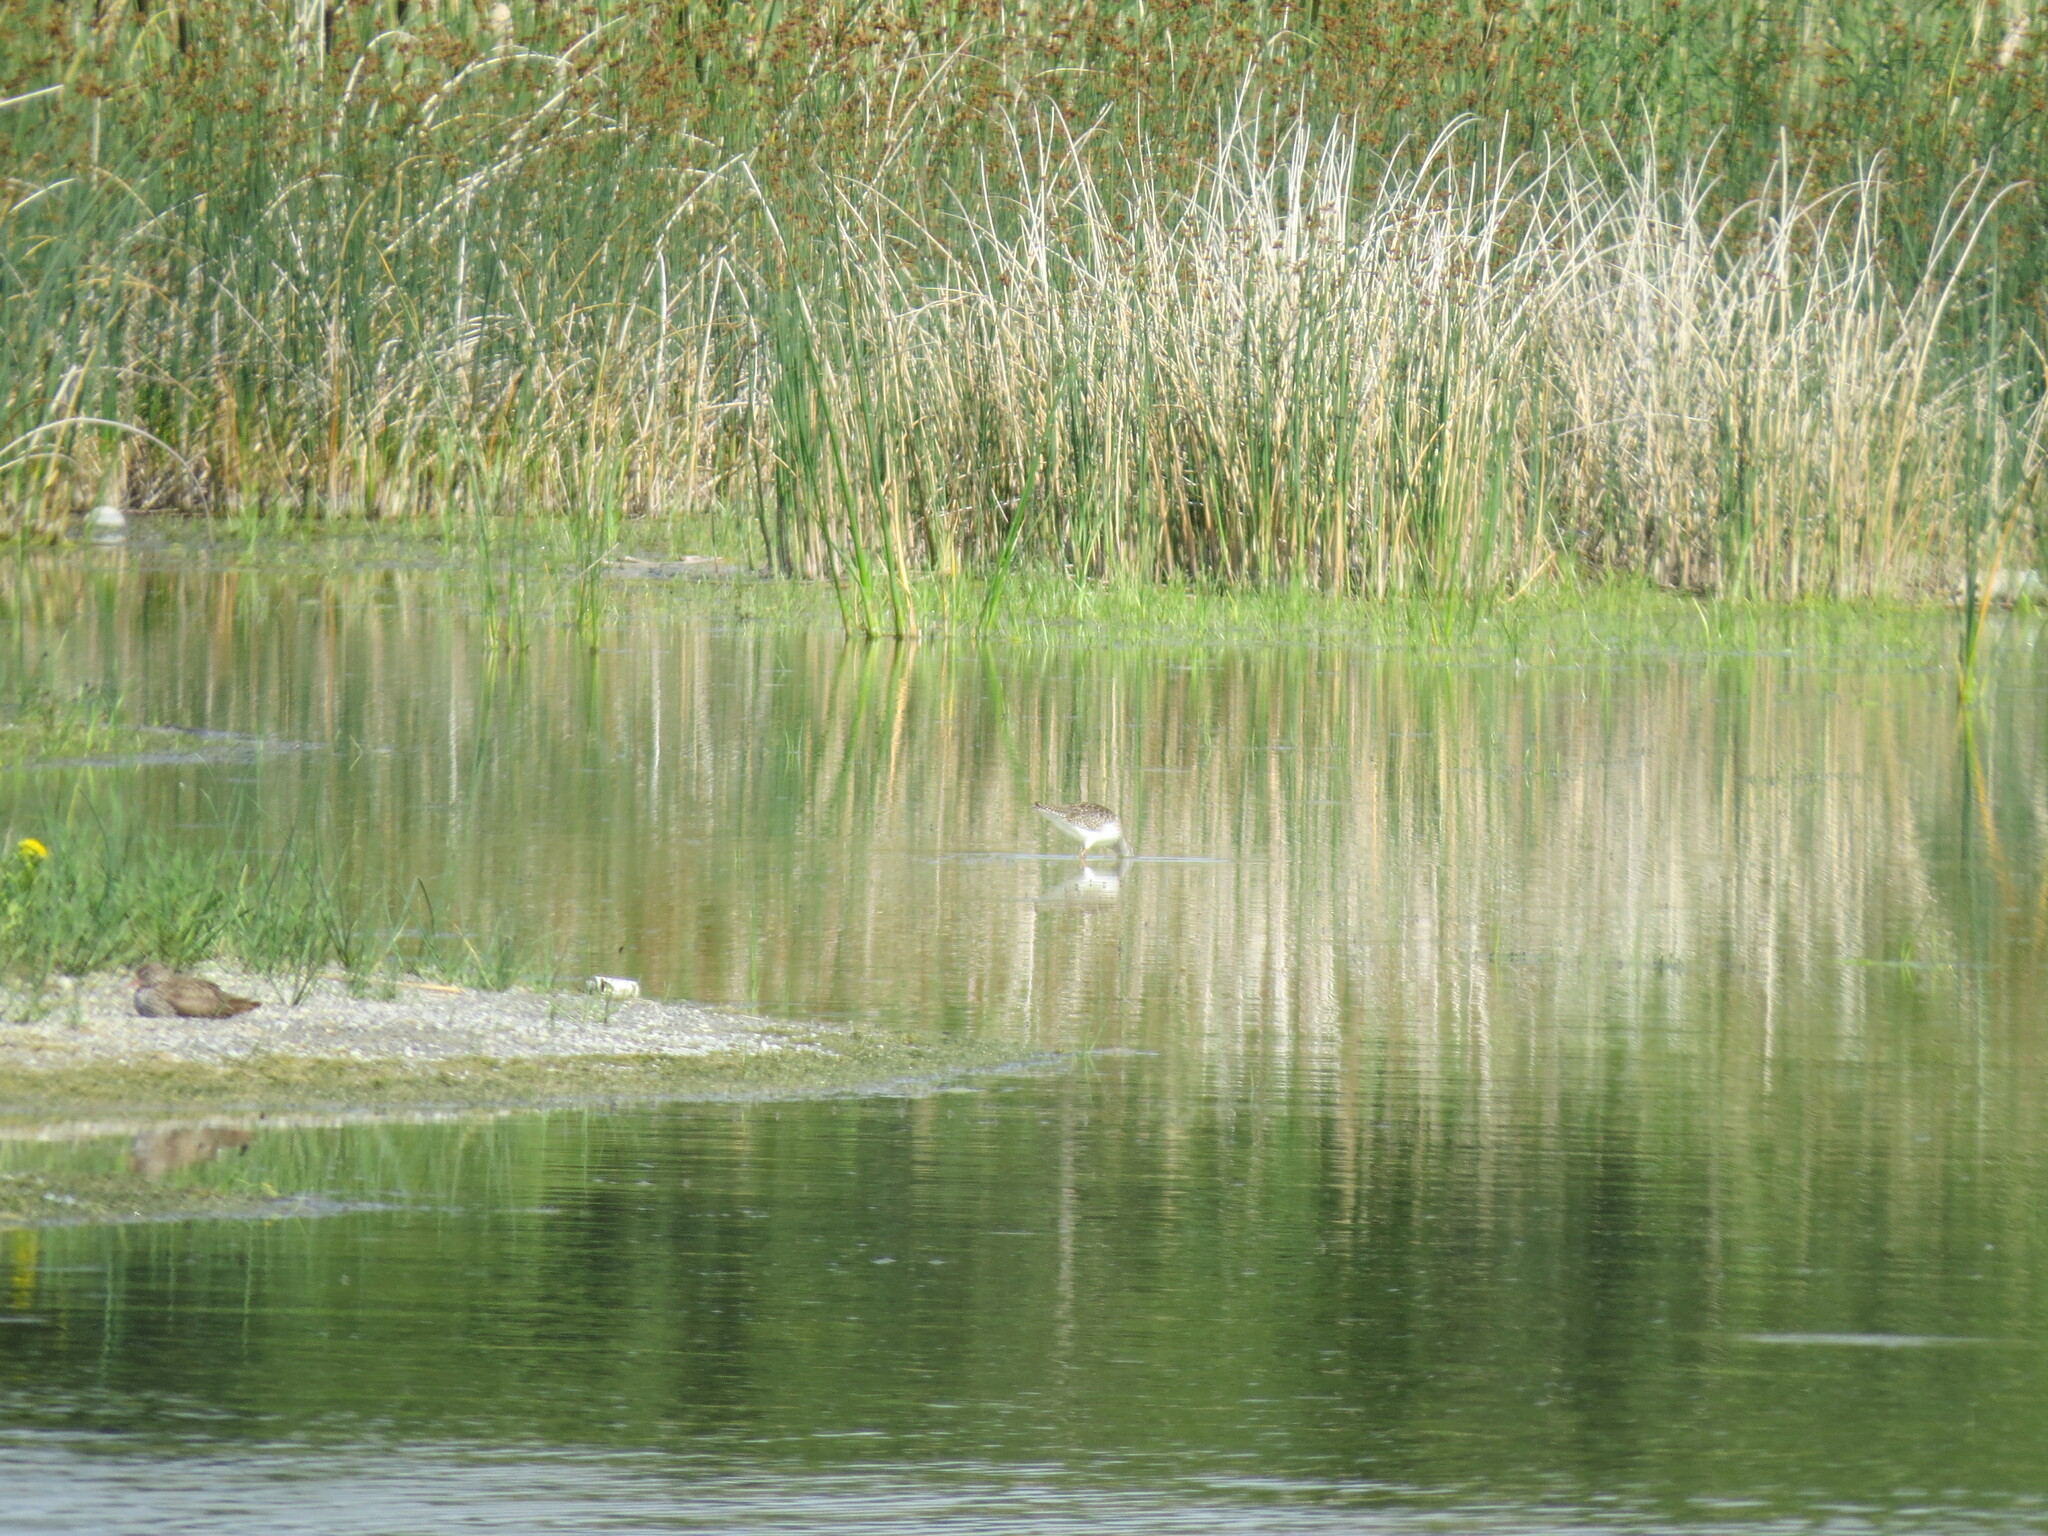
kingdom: Animalia
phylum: Chordata
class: Aves
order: Charadriiformes
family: Scolopacidae
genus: Tringa
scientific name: Tringa nebularia
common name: Common greenshank
